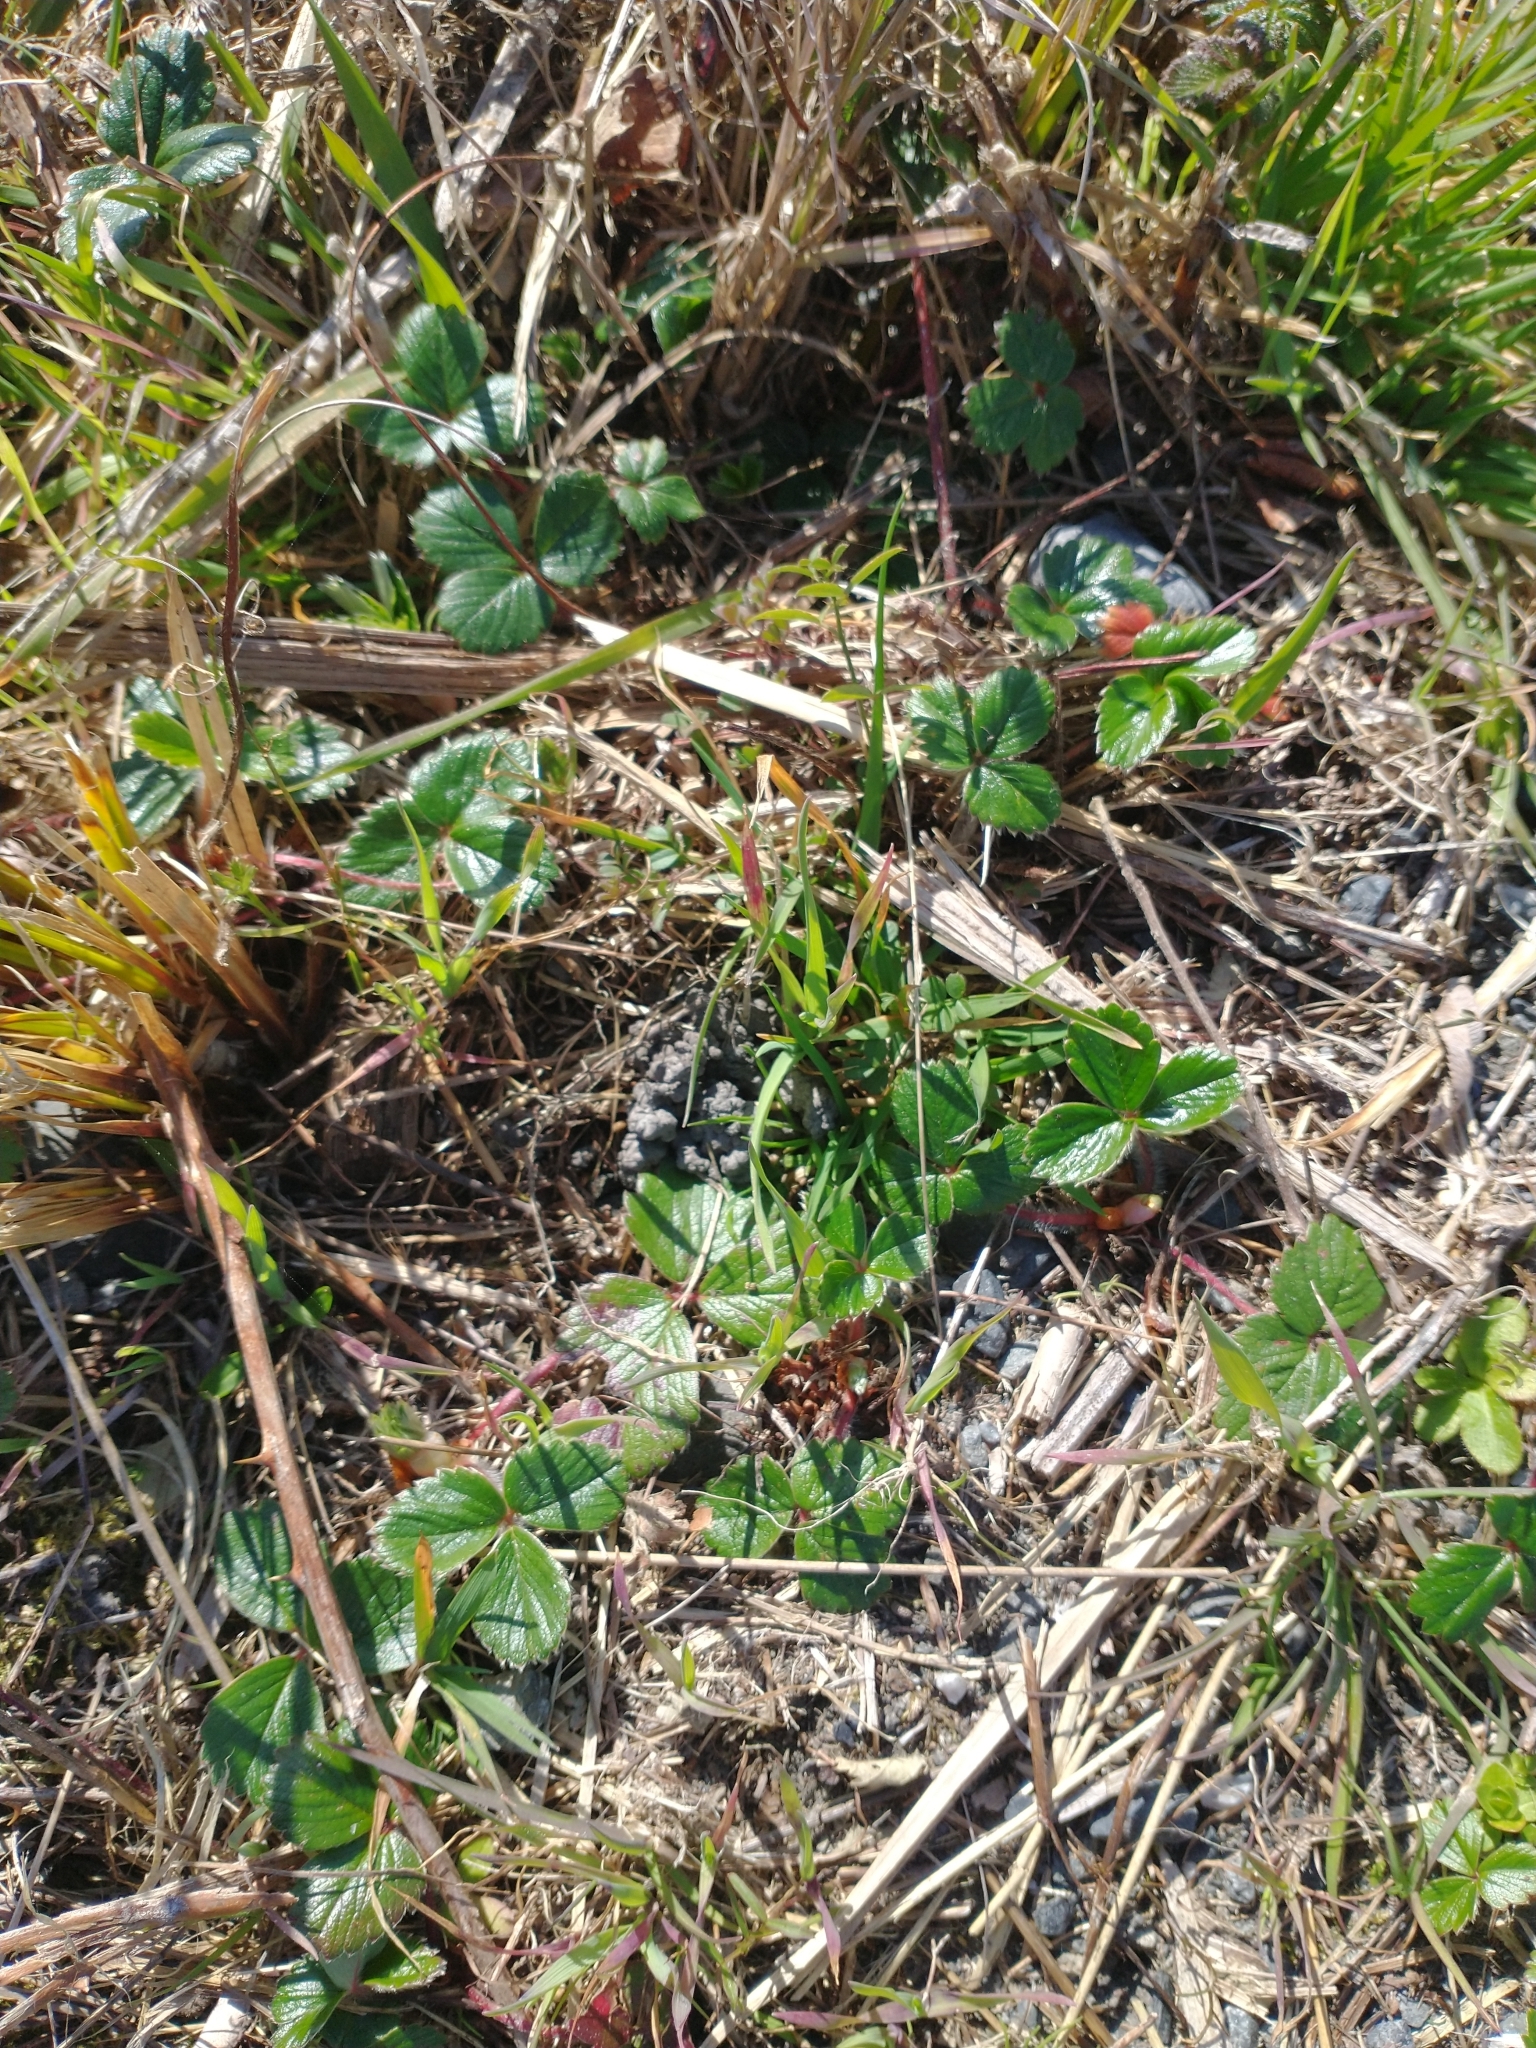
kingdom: Plantae
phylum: Tracheophyta
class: Magnoliopsida
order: Rosales
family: Rosaceae
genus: Fragaria
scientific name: Fragaria chiloensis
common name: Beach strawberry
